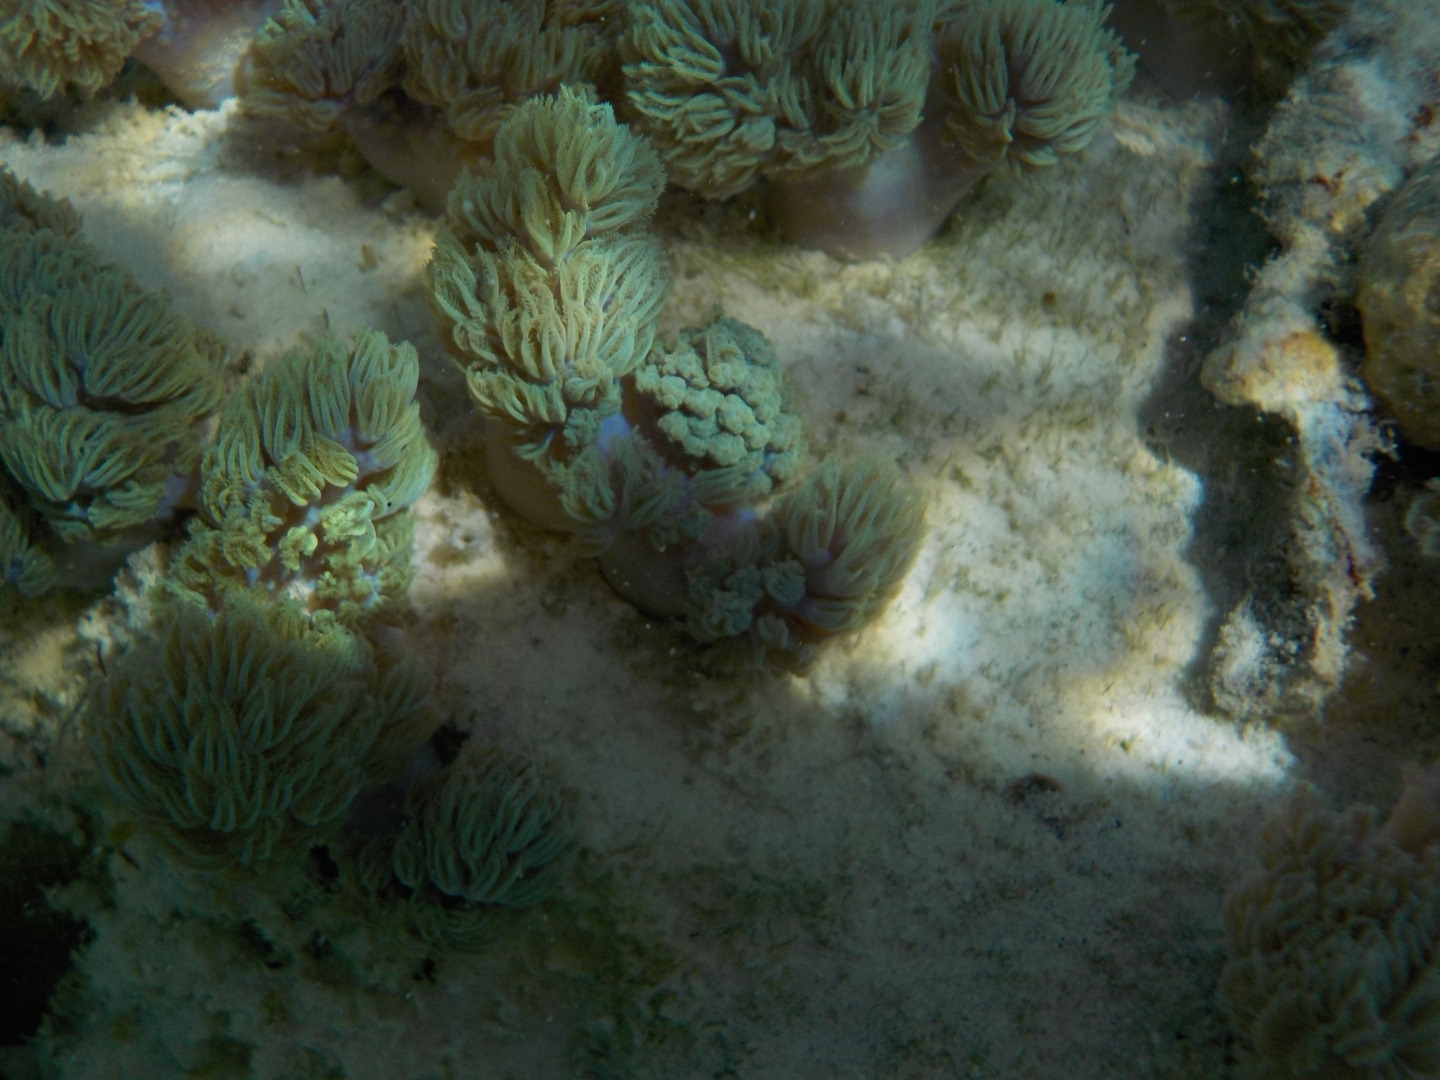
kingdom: Animalia
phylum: Cnidaria
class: Anthozoa
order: Malacalcyonacea
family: Xeniidae
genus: Conglomeratusclera
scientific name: Conglomeratusclera coerulea
